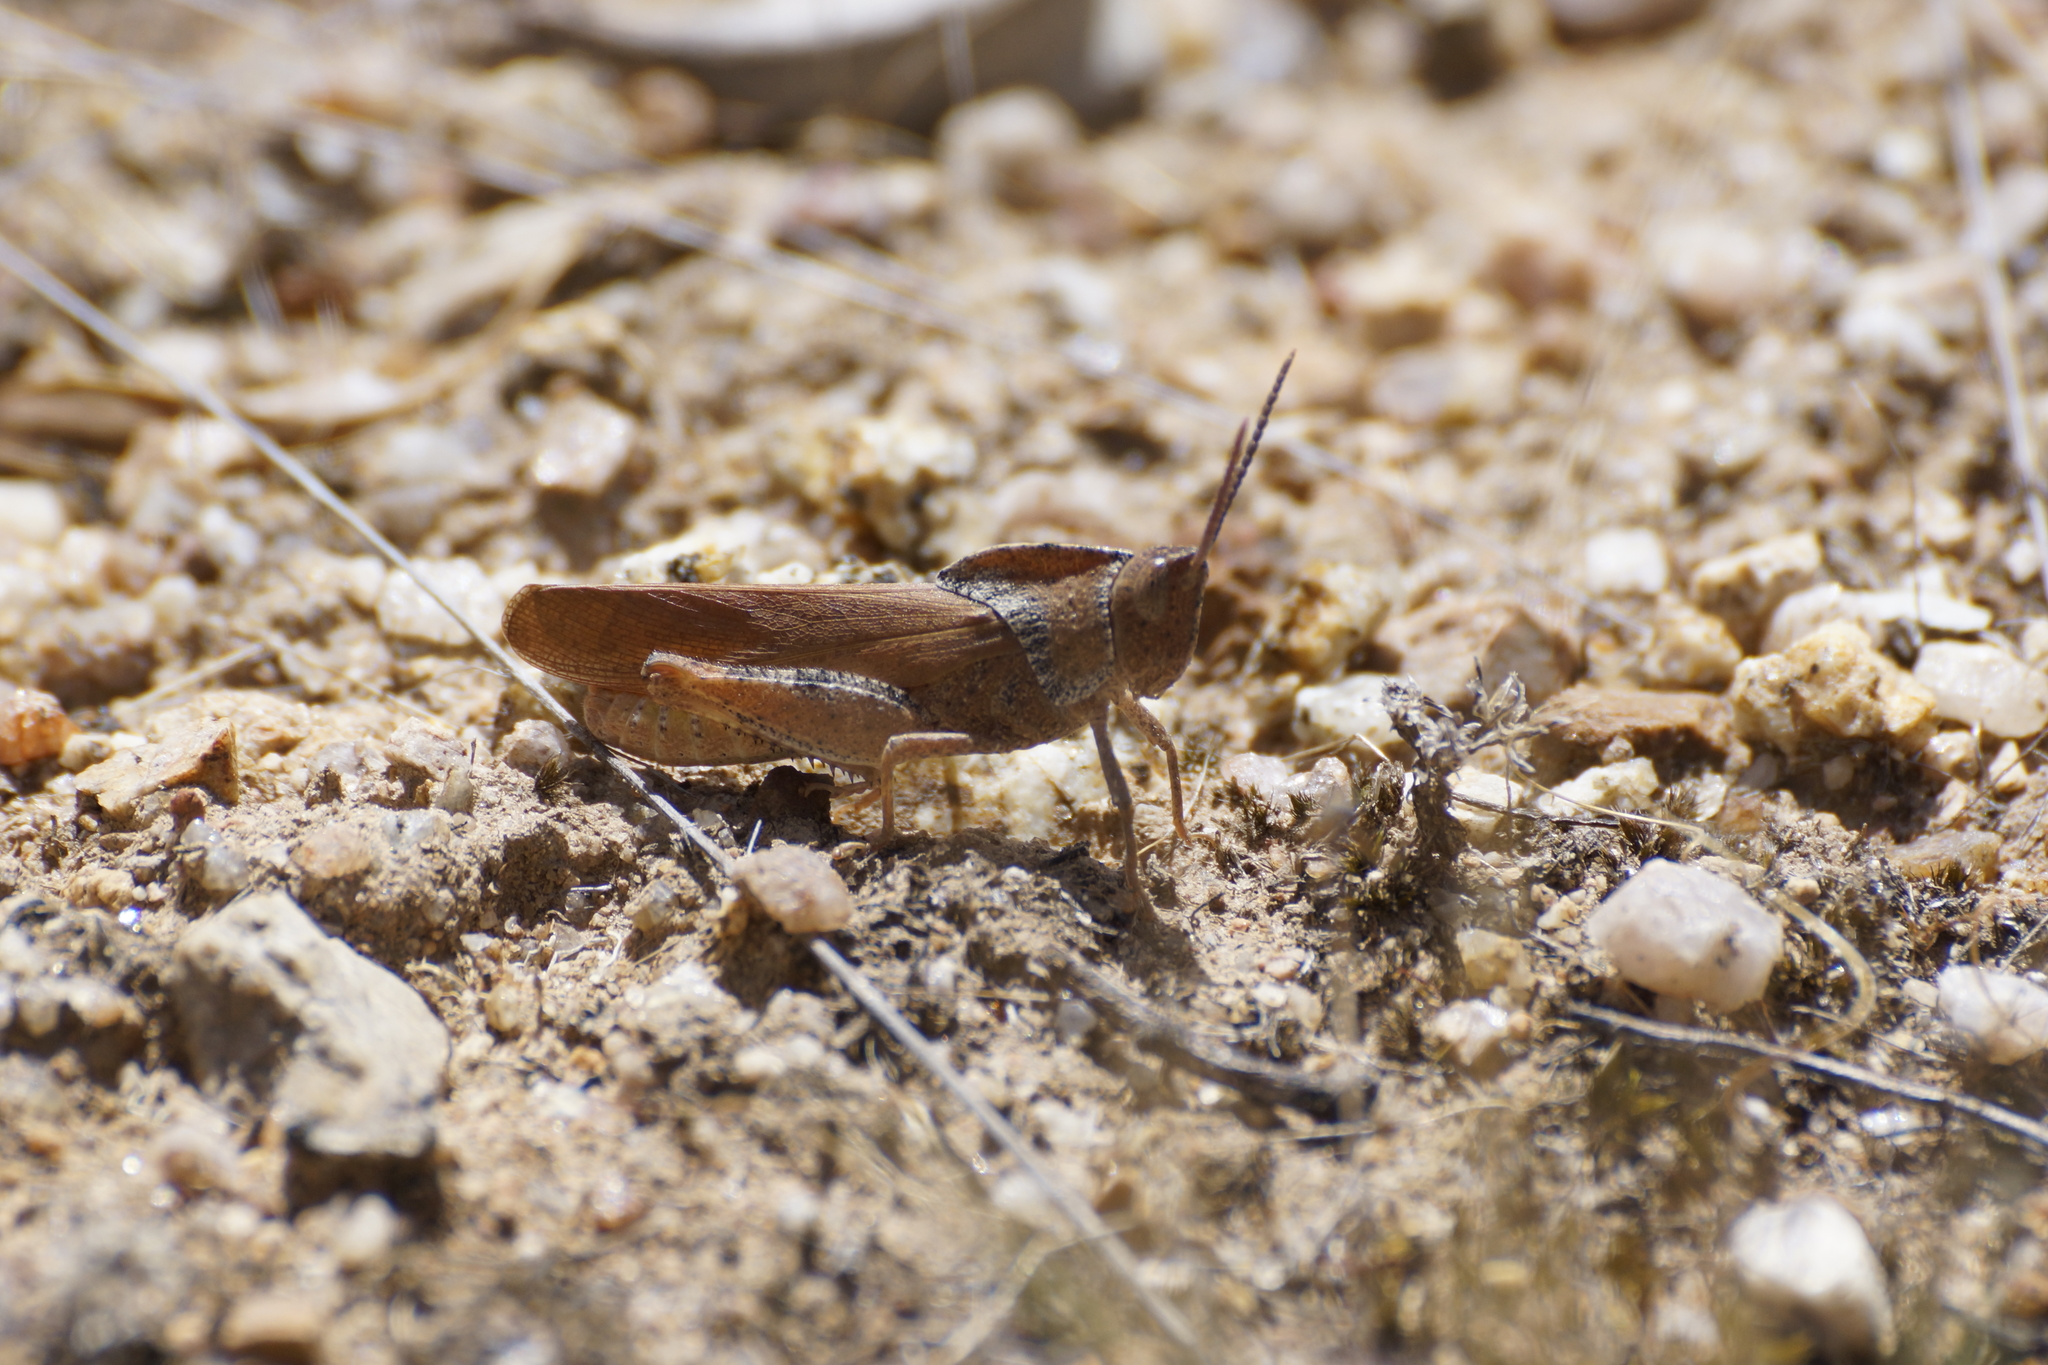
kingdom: Animalia
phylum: Arthropoda
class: Insecta
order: Orthoptera
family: Acrididae
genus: Goniaea
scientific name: Goniaea australasiae
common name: Gumleaf grasshopper
